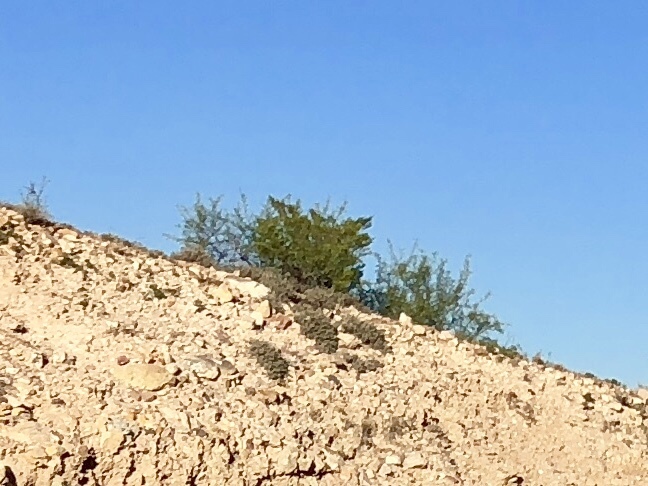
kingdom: Plantae
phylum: Tracheophyta
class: Magnoliopsida
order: Zygophyllales
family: Zygophyllaceae
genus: Larrea
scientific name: Larrea tridentata
